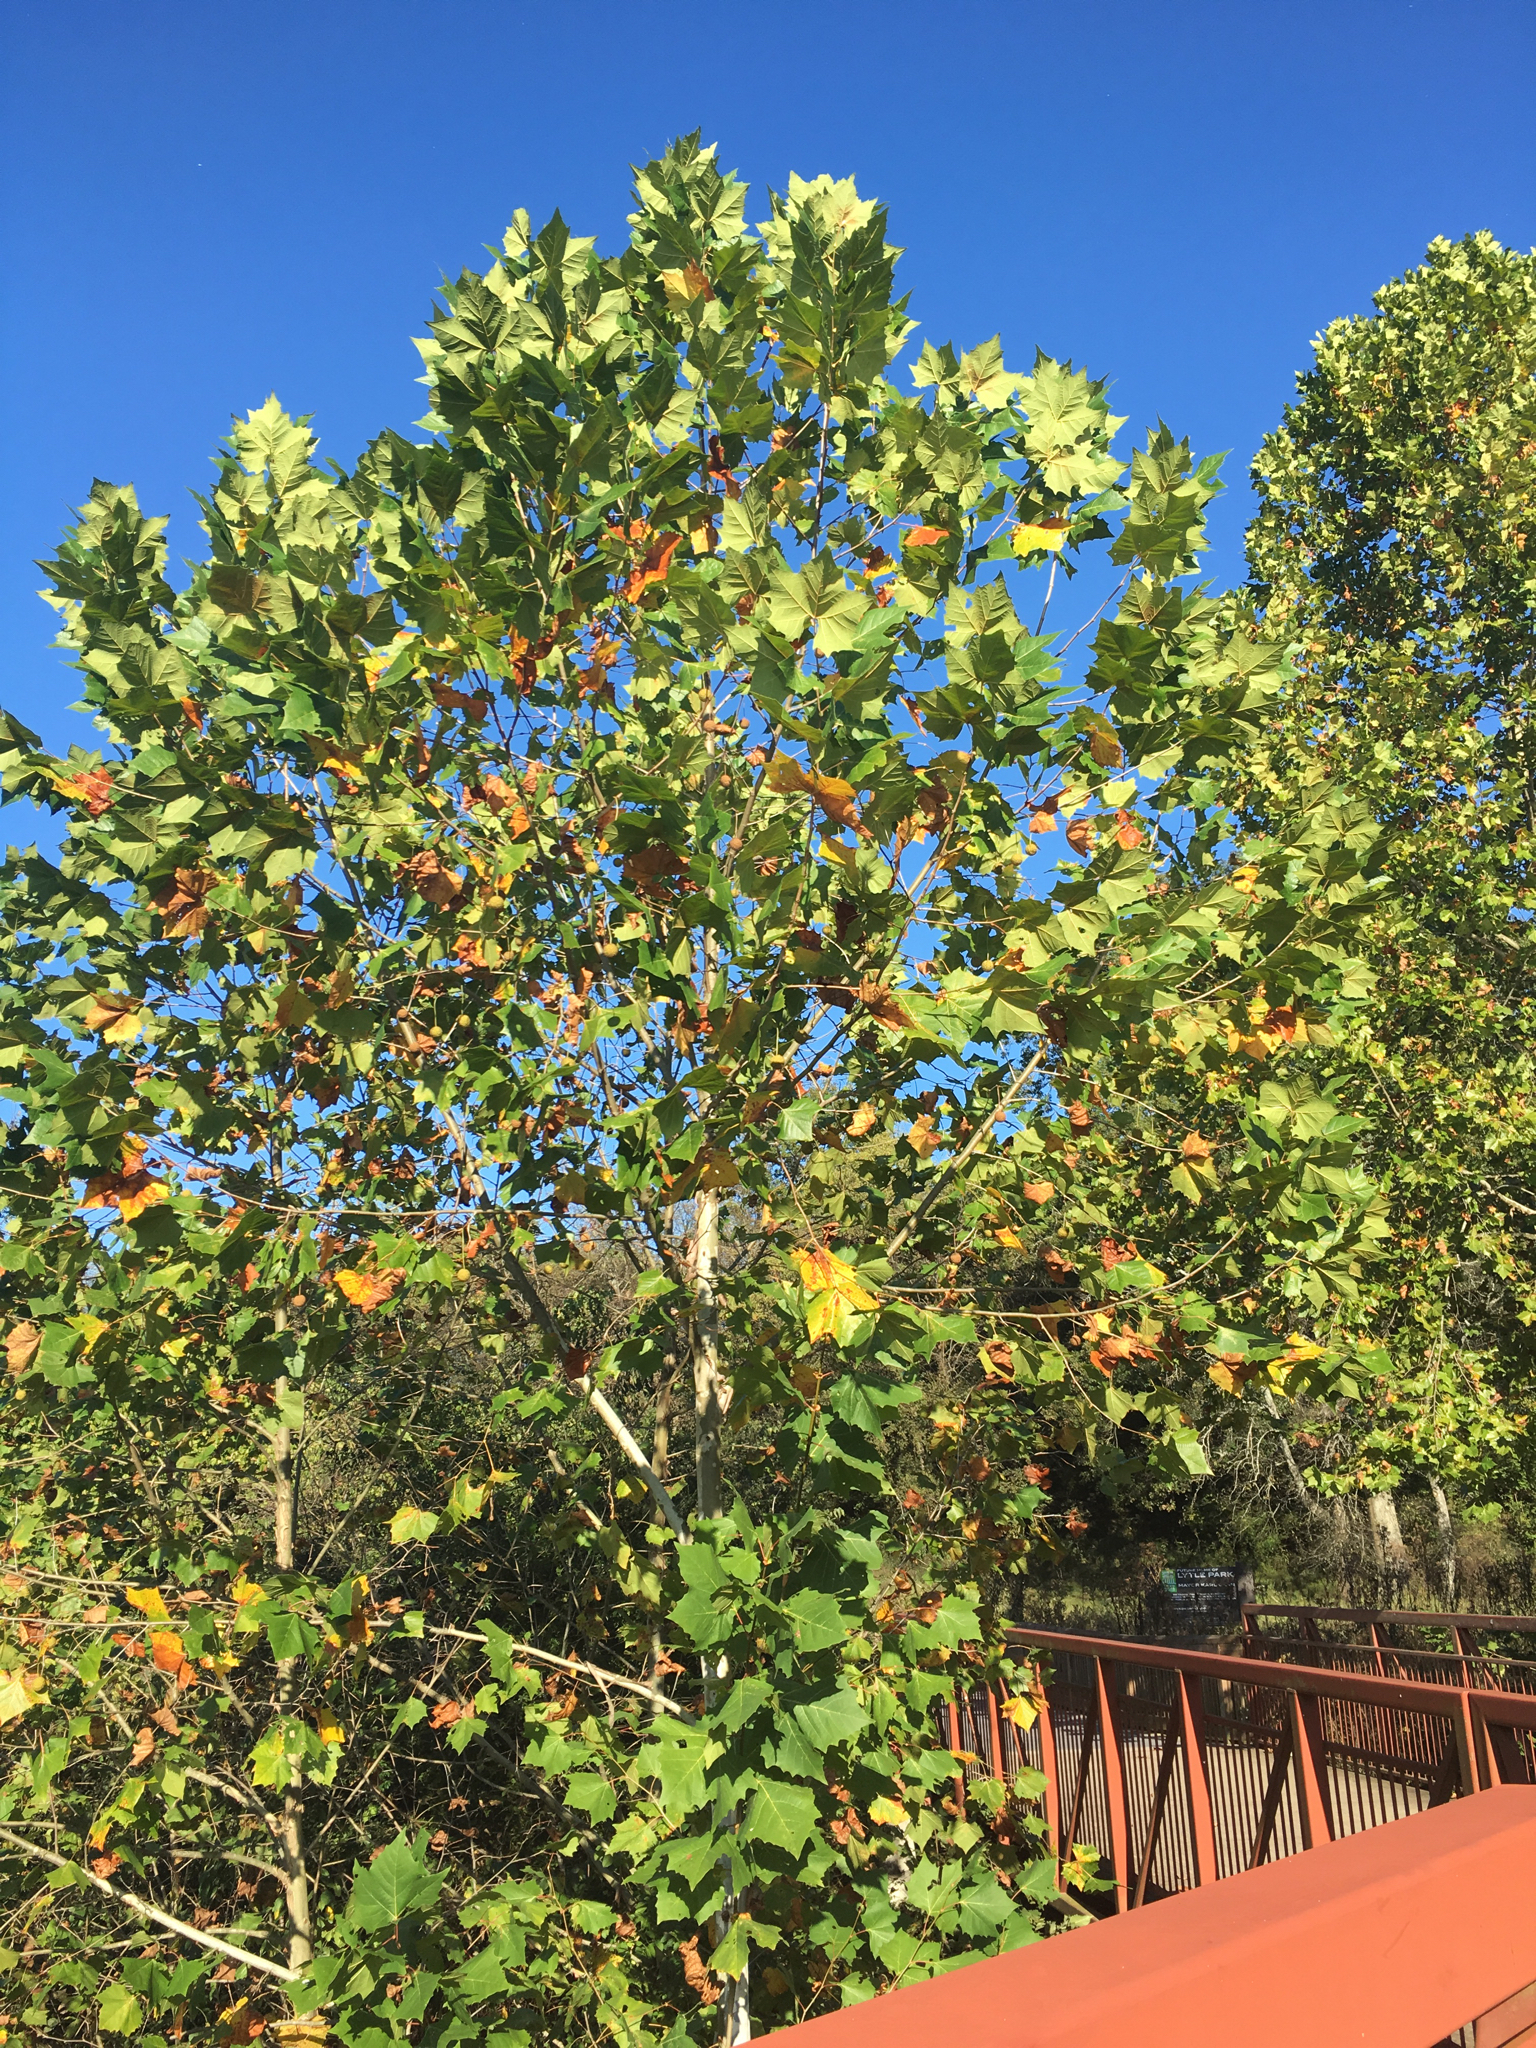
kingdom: Plantae
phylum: Tracheophyta
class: Magnoliopsida
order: Proteales
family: Platanaceae
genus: Platanus
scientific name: Platanus occidentalis
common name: American sycamore
